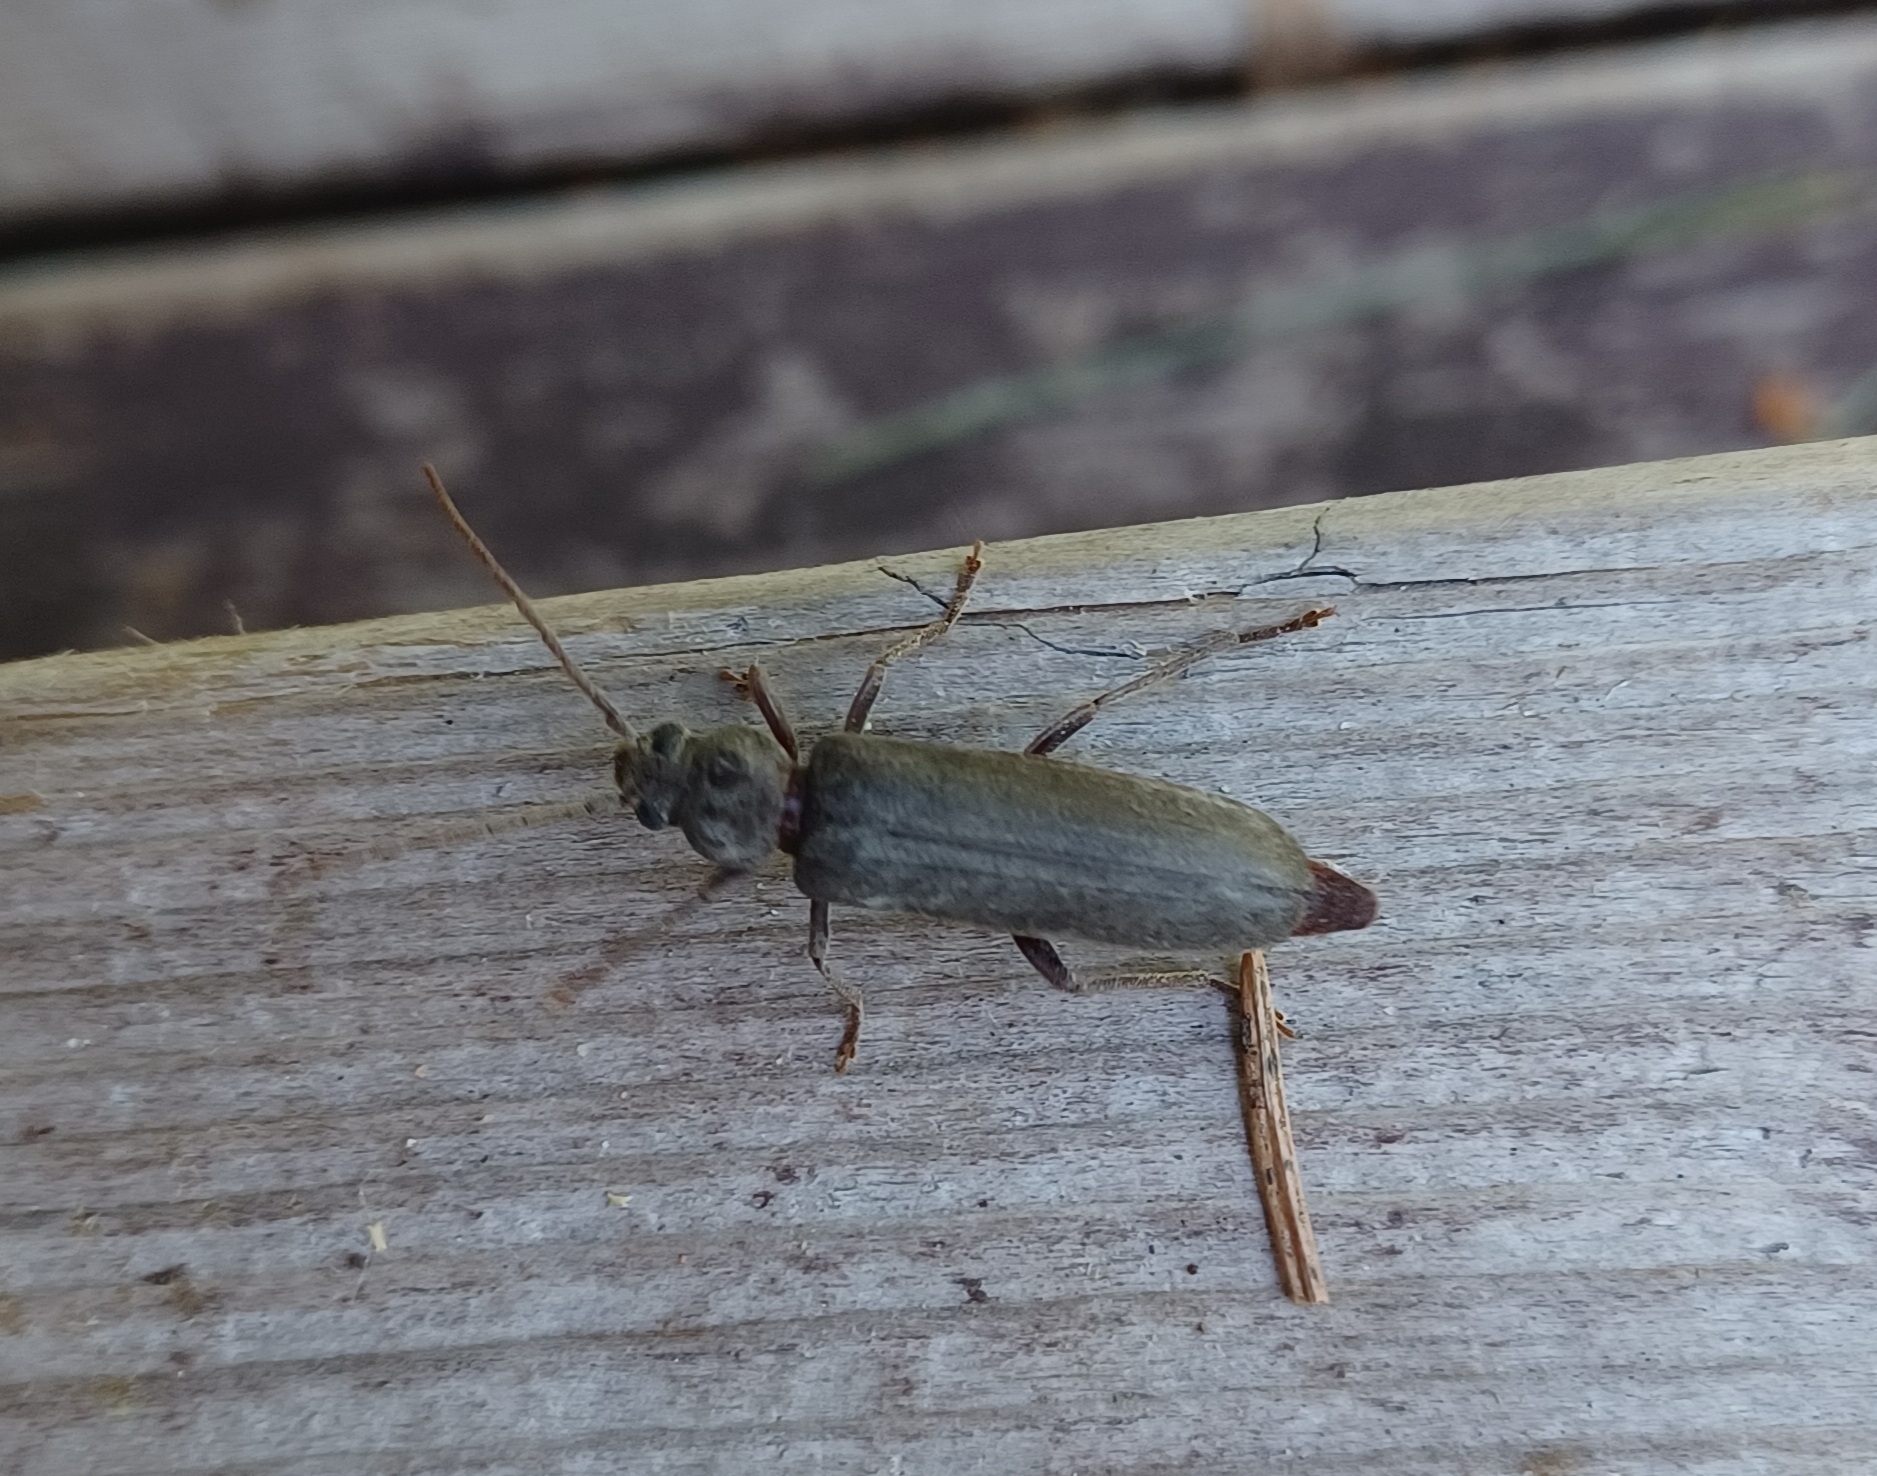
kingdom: Animalia
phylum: Arthropoda
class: Insecta
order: Coleoptera
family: Cerambycidae
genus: Arhopalus
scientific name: Arhopalus rusticus
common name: Rust pine borer
